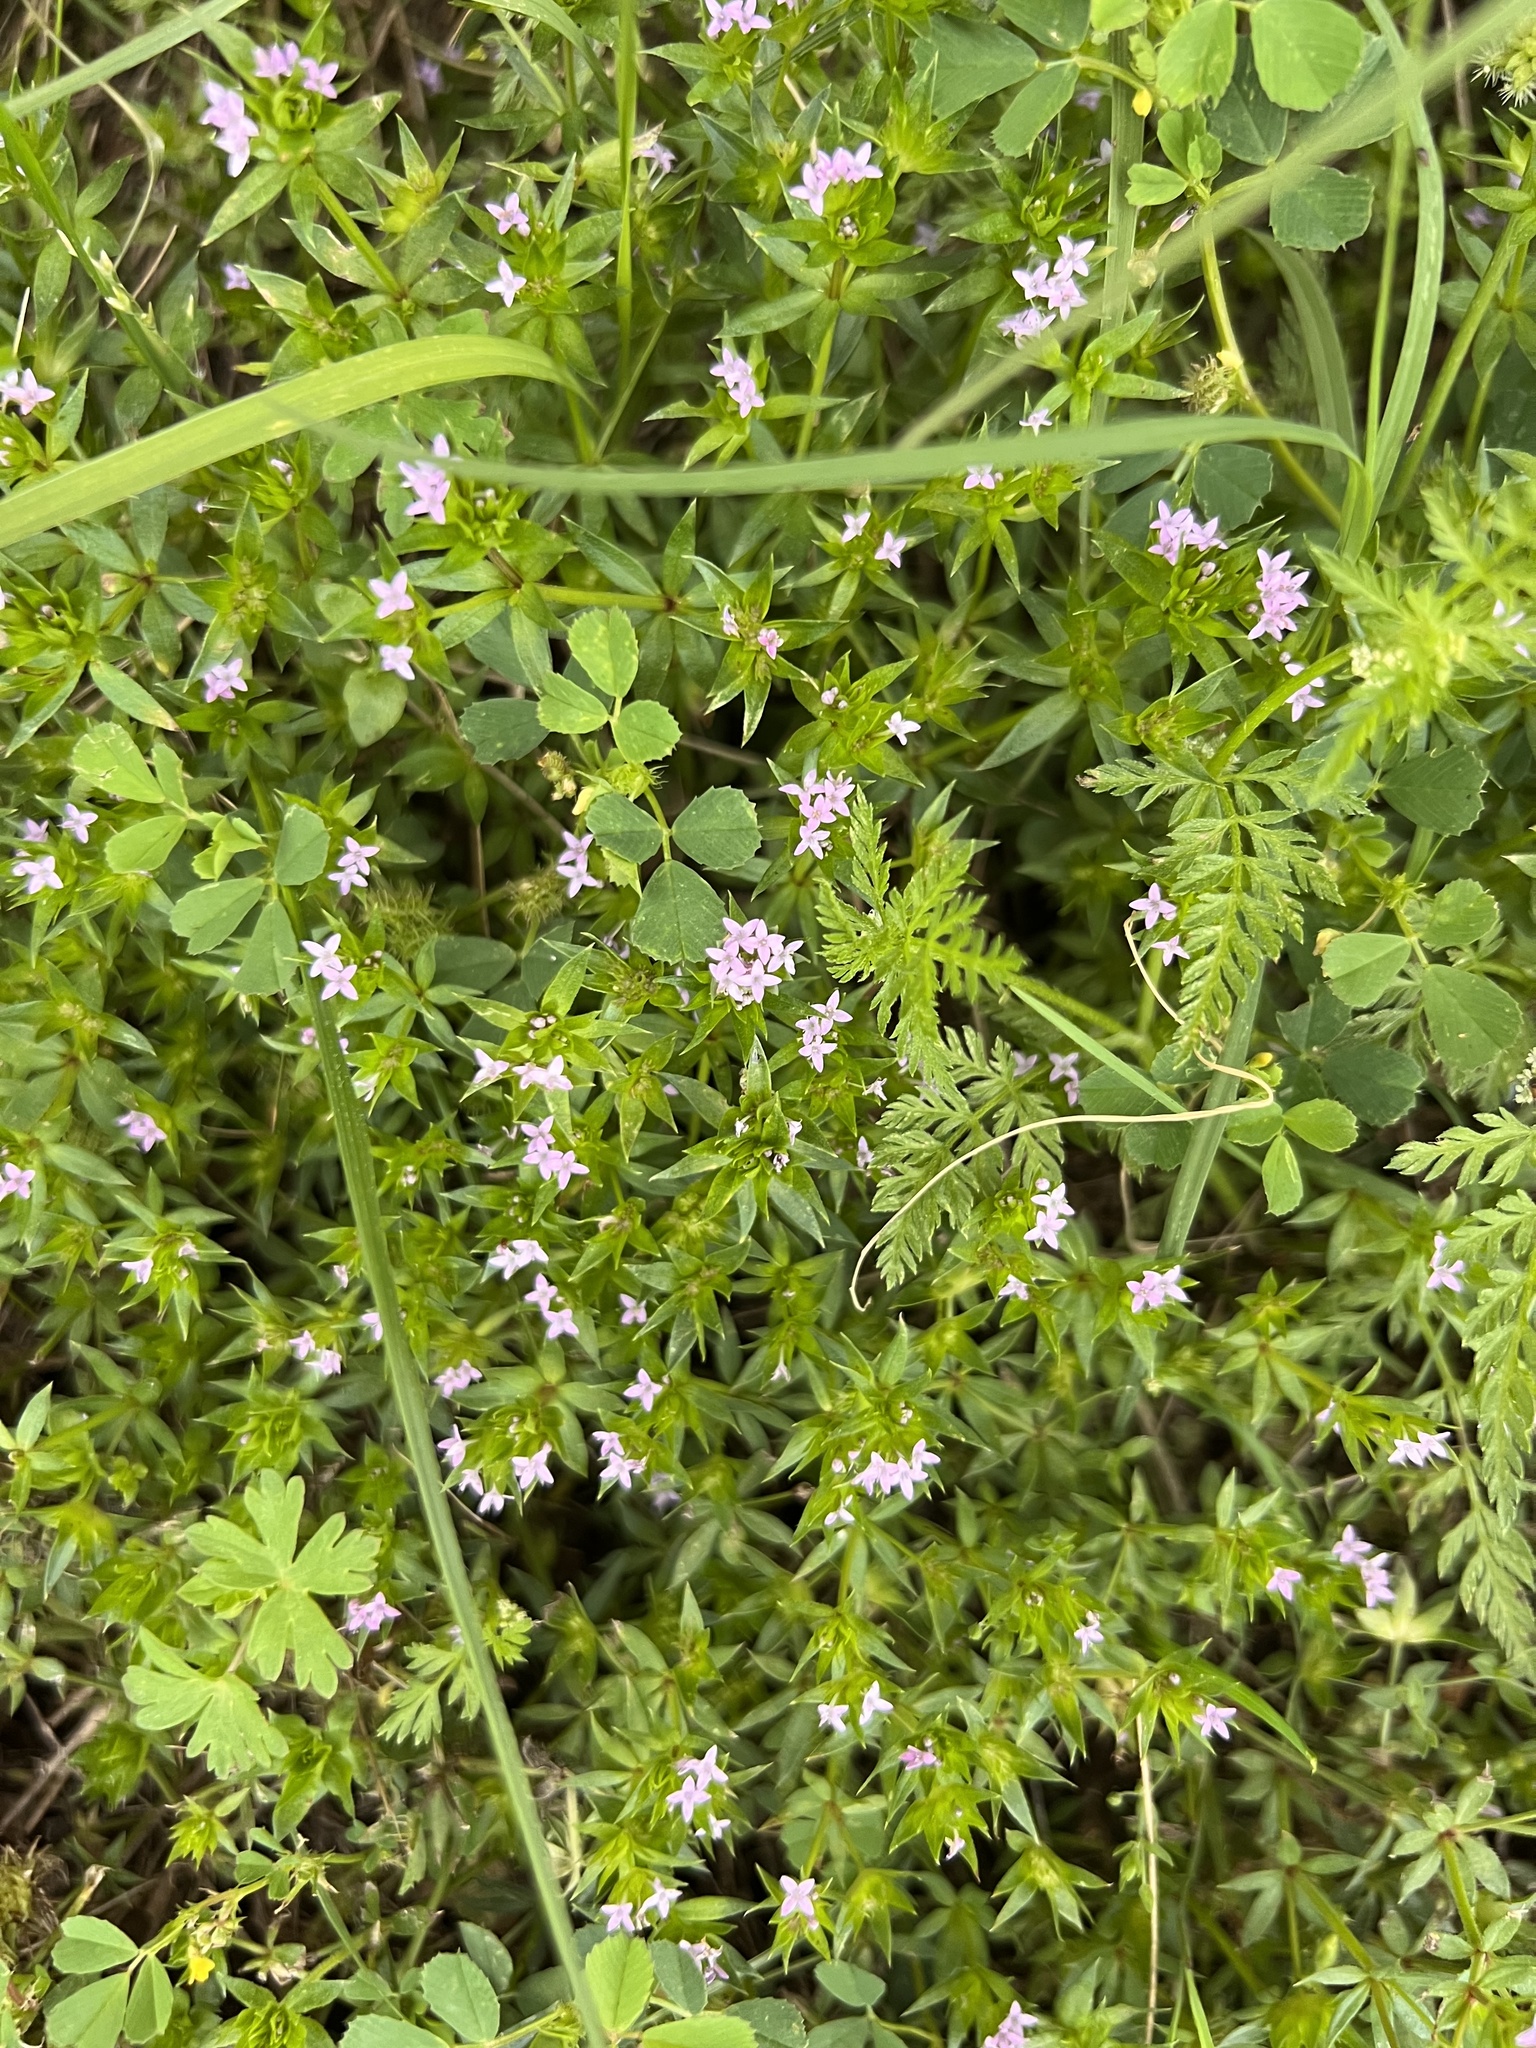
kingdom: Plantae
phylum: Tracheophyta
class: Magnoliopsida
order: Gentianales
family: Rubiaceae
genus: Sherardia
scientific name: Sherardia arvensis
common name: Field madder
